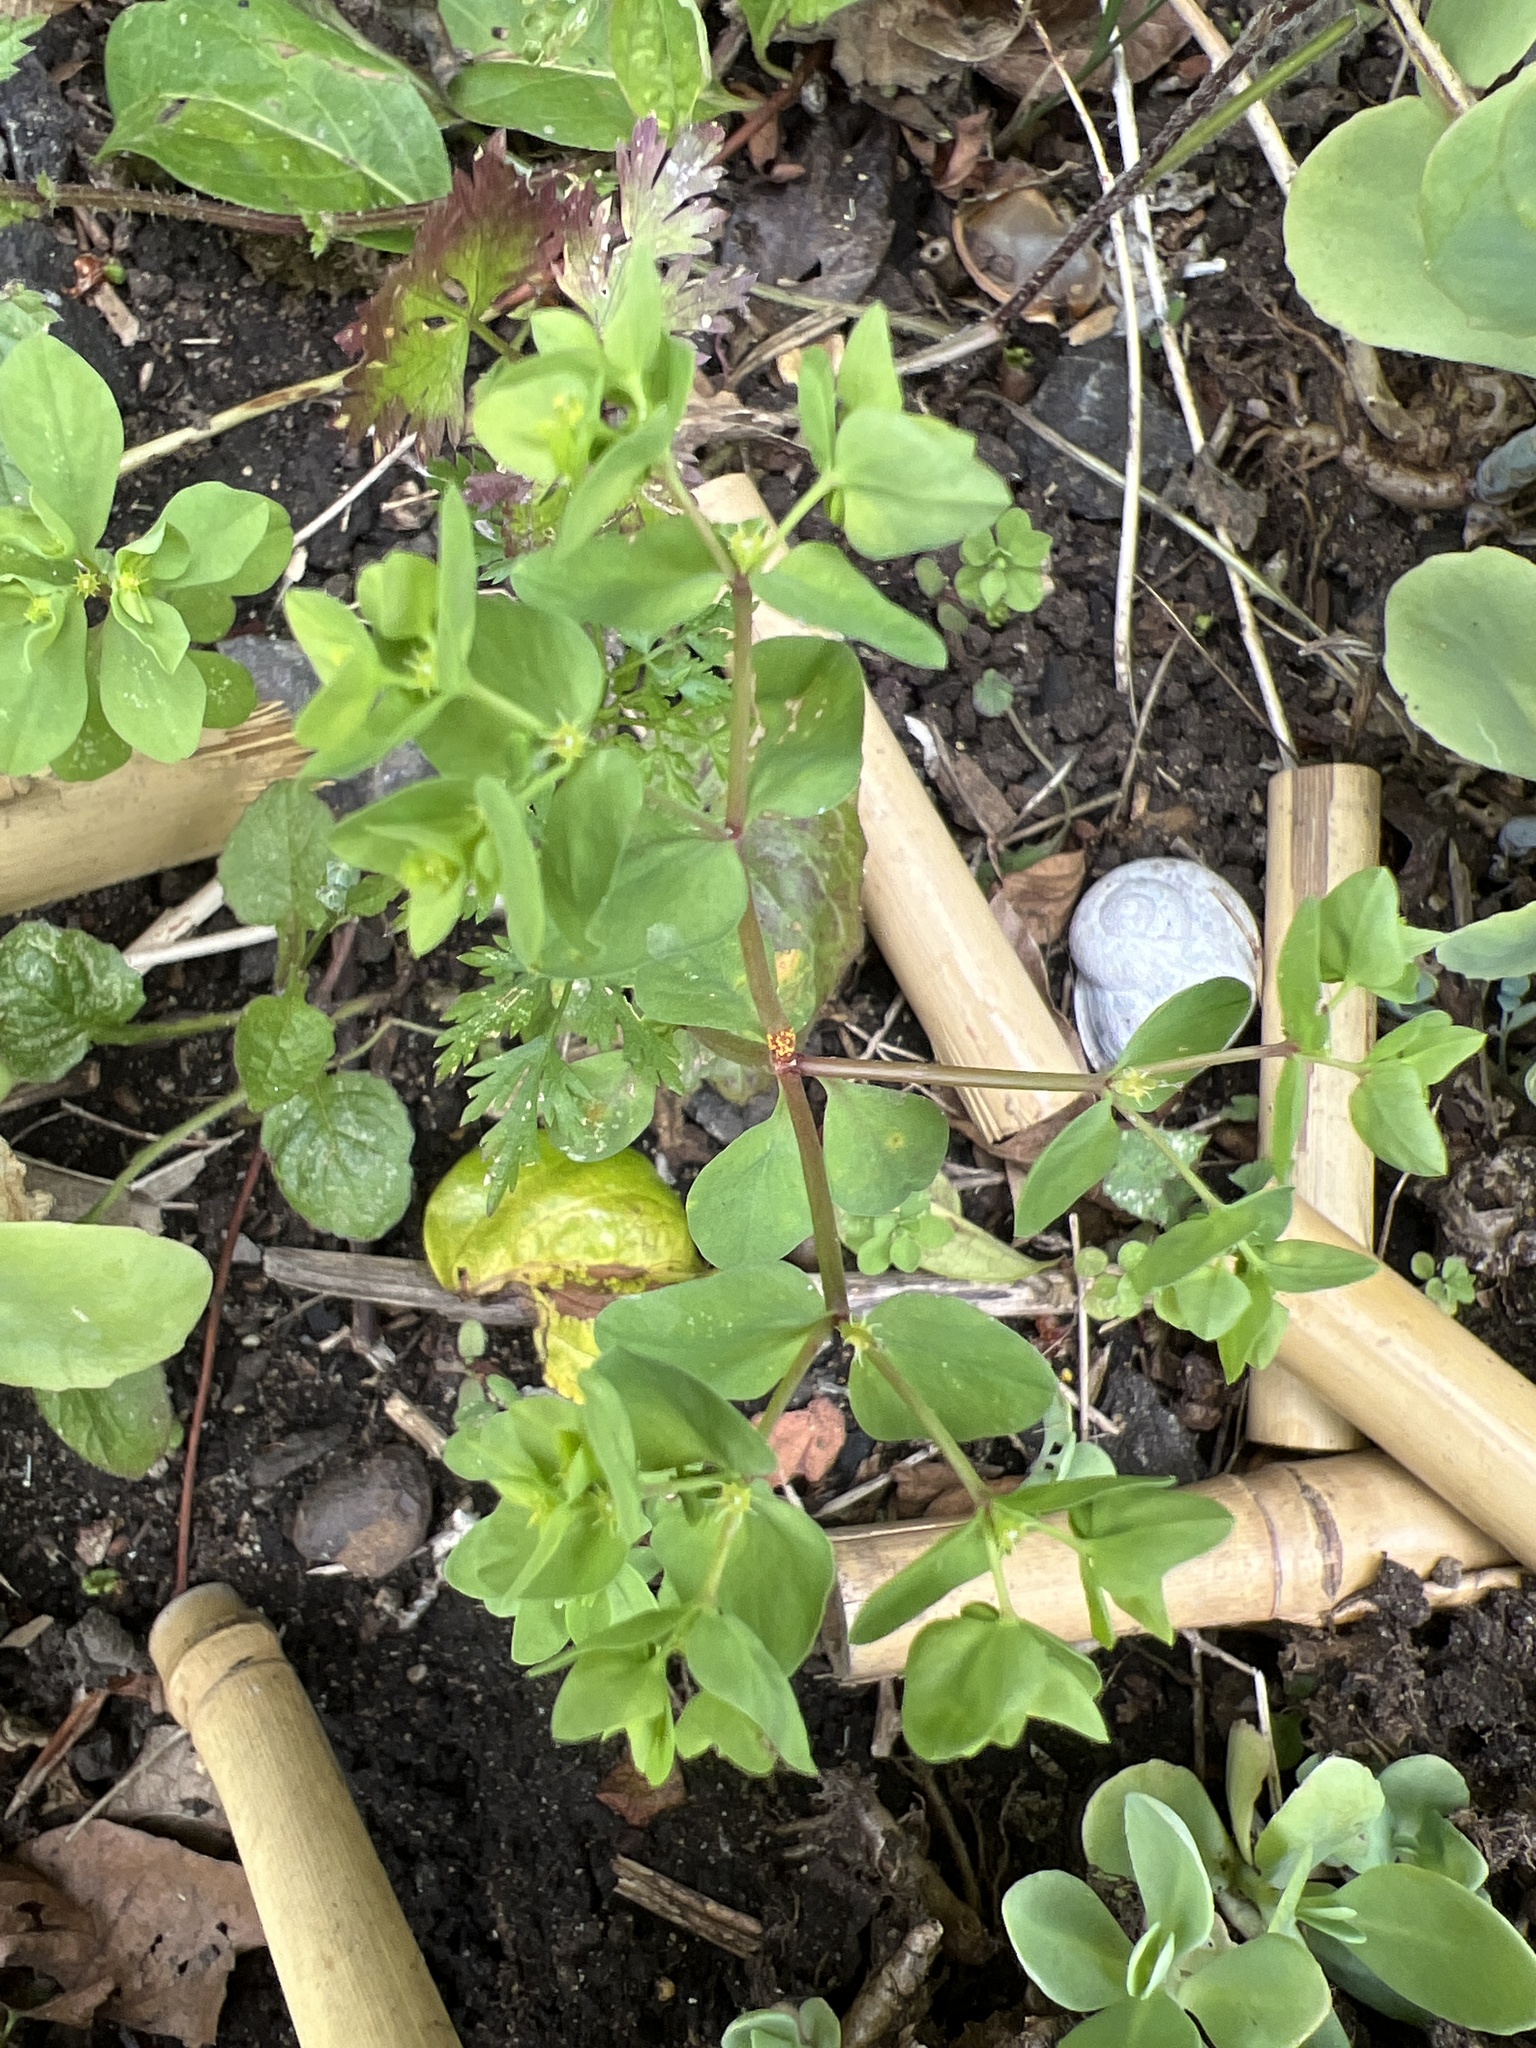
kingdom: Plantae
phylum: Tracheophyta
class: Magnoliopsida
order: Malpighiales
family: Euphorbiaceae
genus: Euphorbia
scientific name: Euphorbia peplus
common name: Petty spurge
